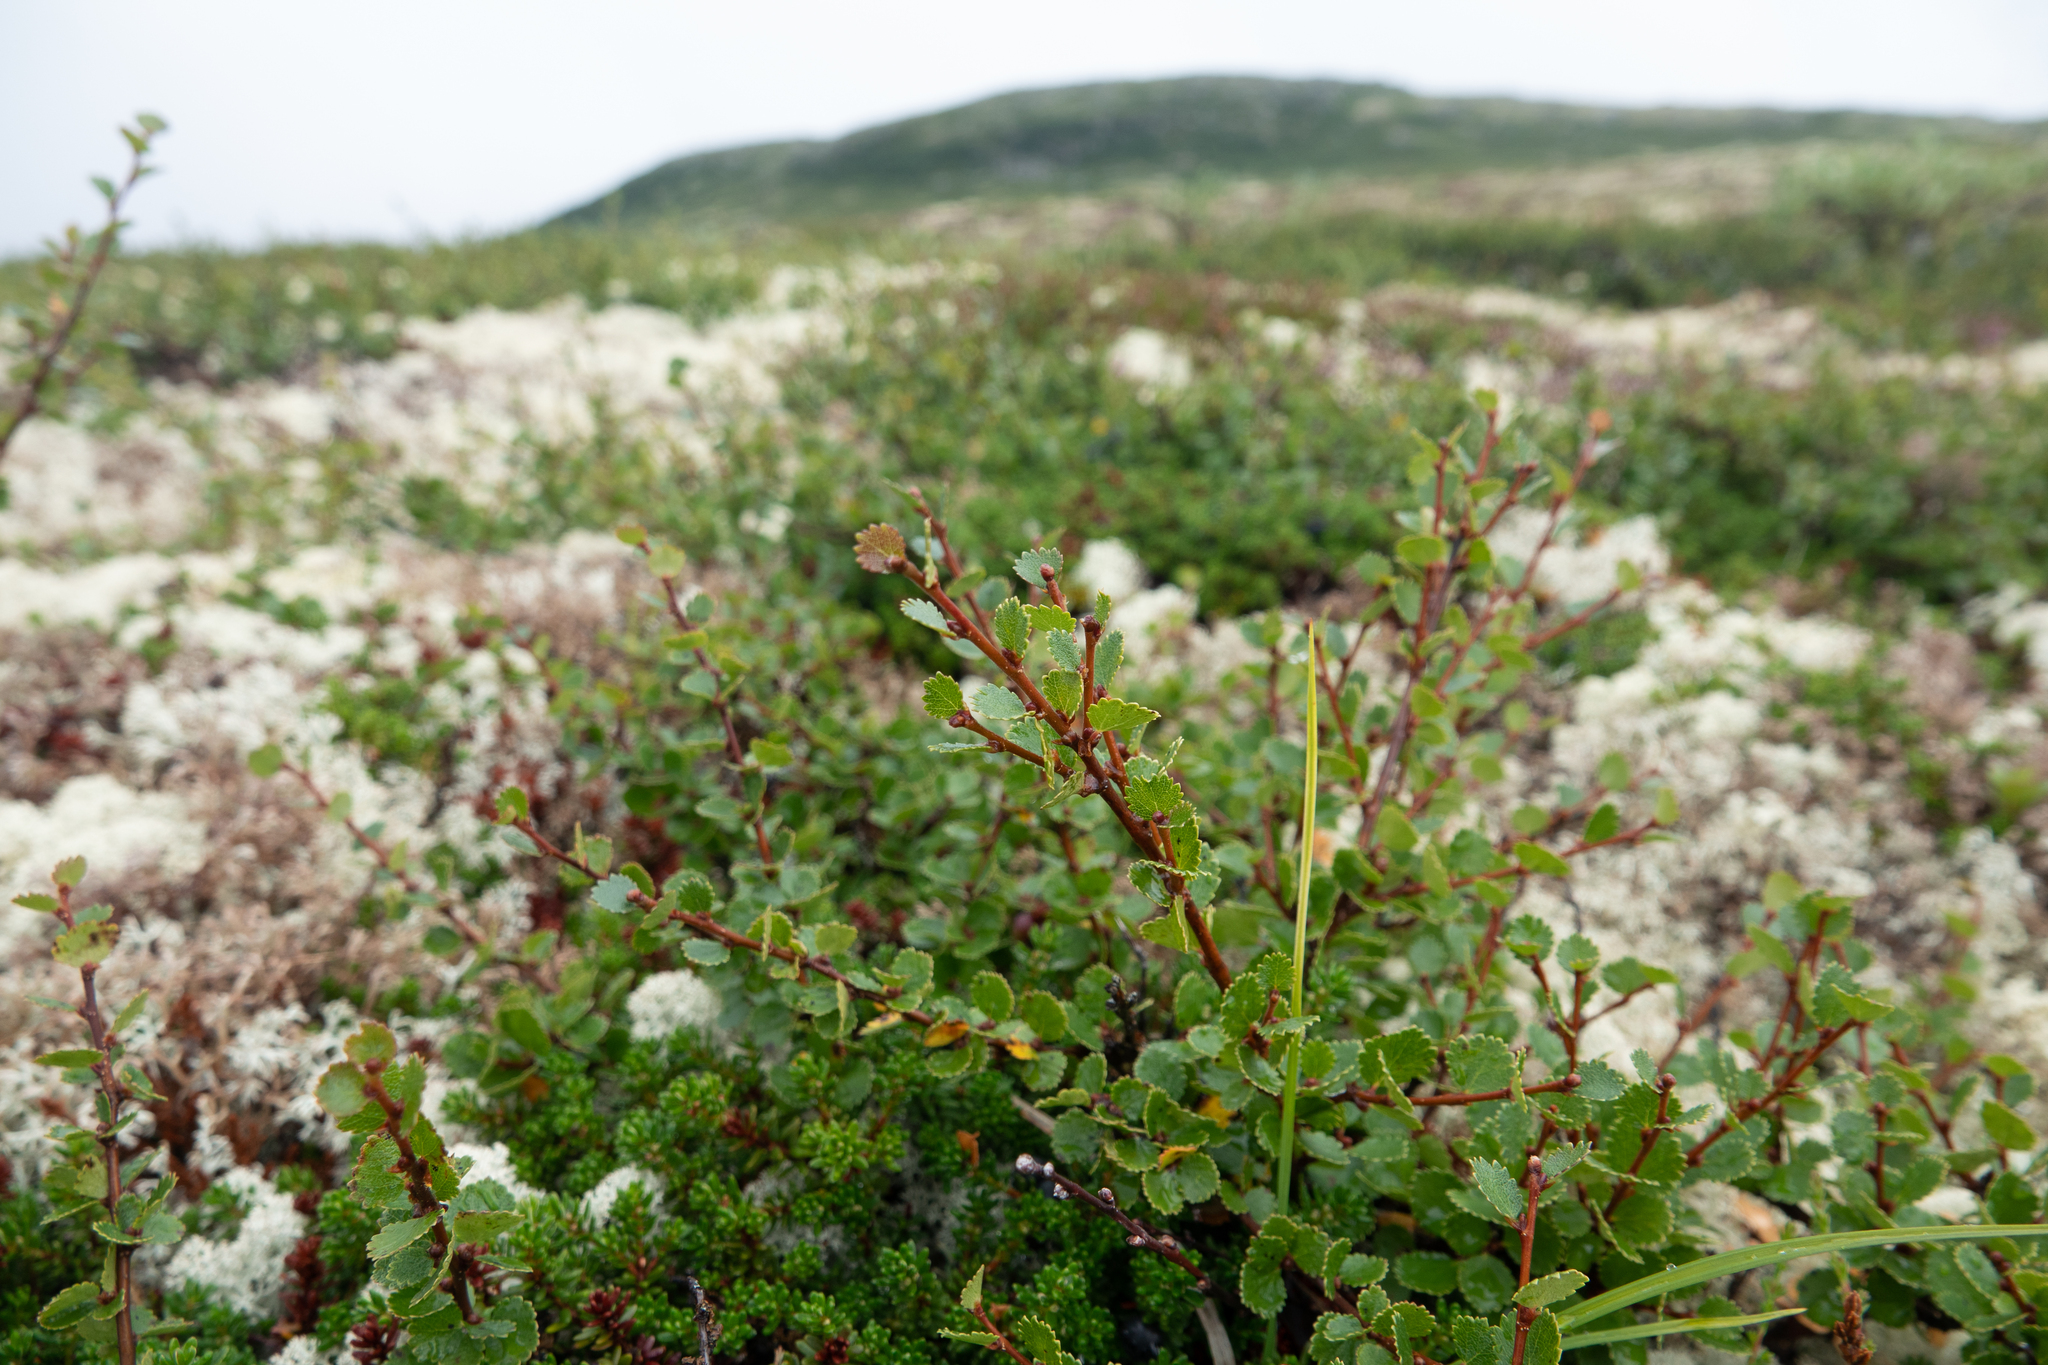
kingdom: Plantae
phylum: Tracheophyta
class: Magnoliopsida
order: Fagales
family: Betulaceae
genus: Betula
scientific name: Betula nana
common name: Arctic dwarf birch
